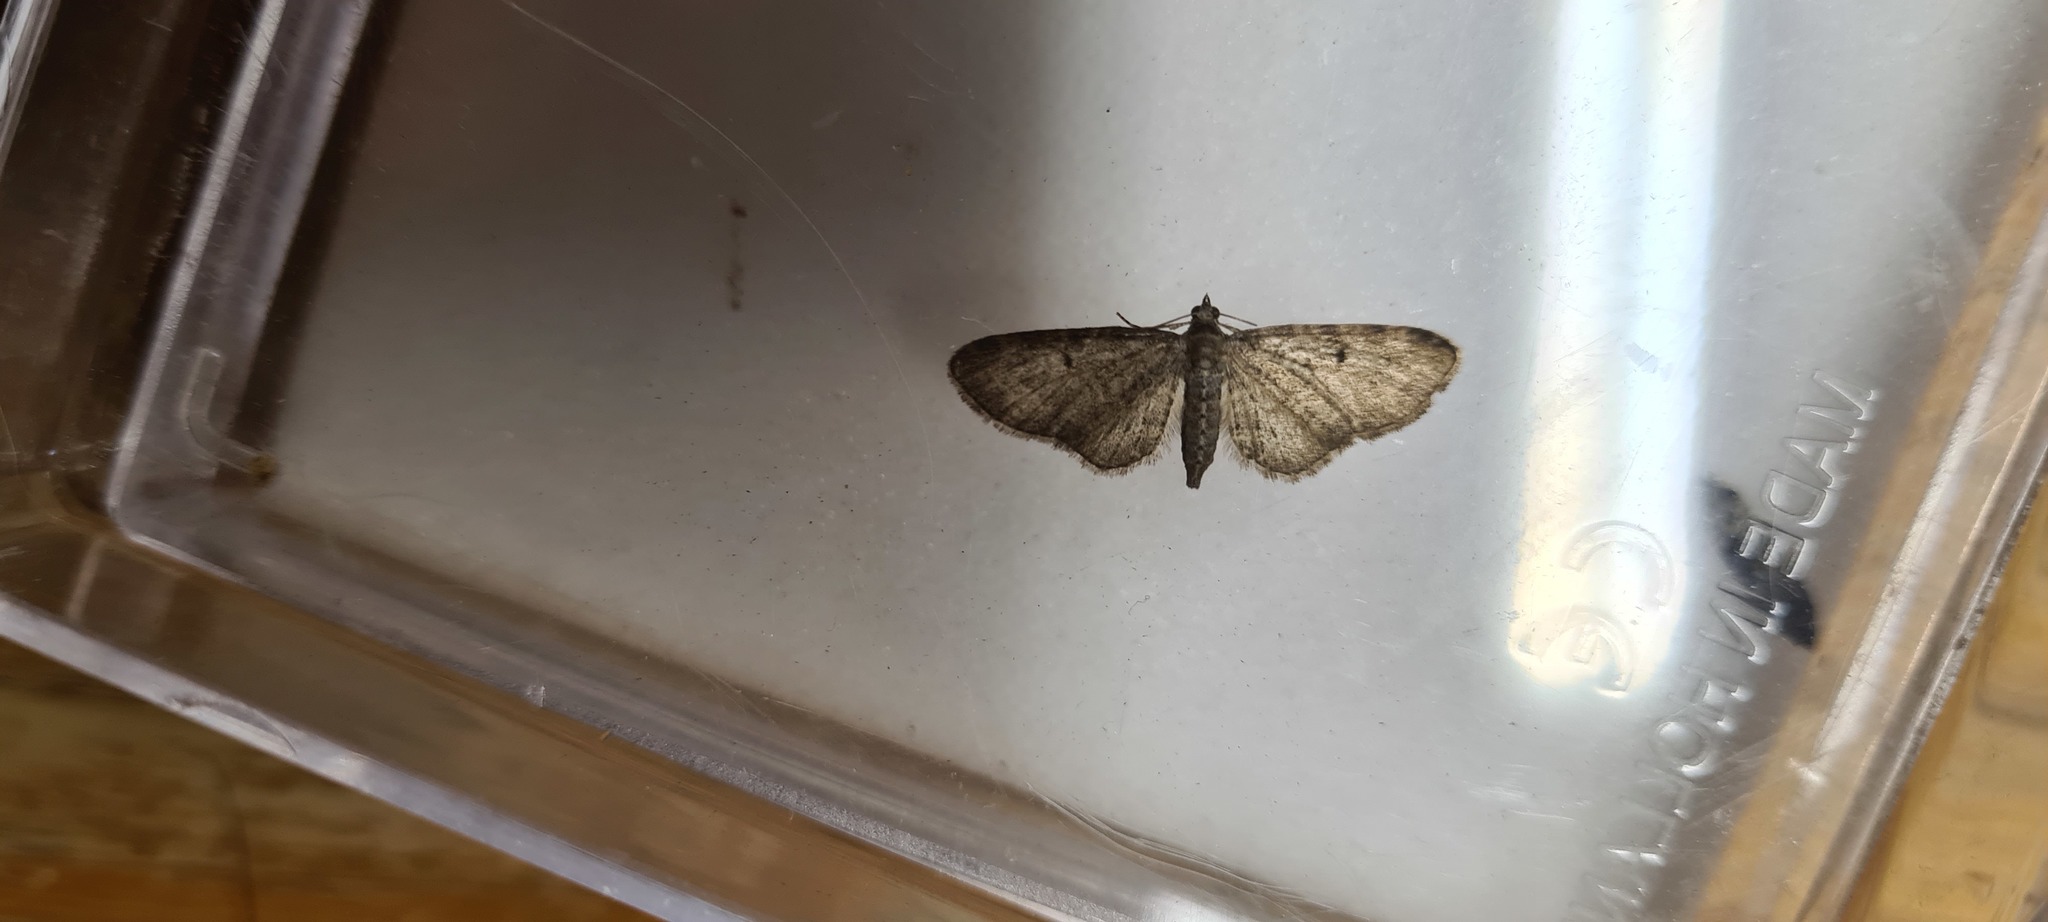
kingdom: Animalia
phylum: Arthropoda
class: Insecta
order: Lepidoptera
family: Geometridae
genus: Eupithecia
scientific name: Eupithecia virgaureata
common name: Golden-rod pug
